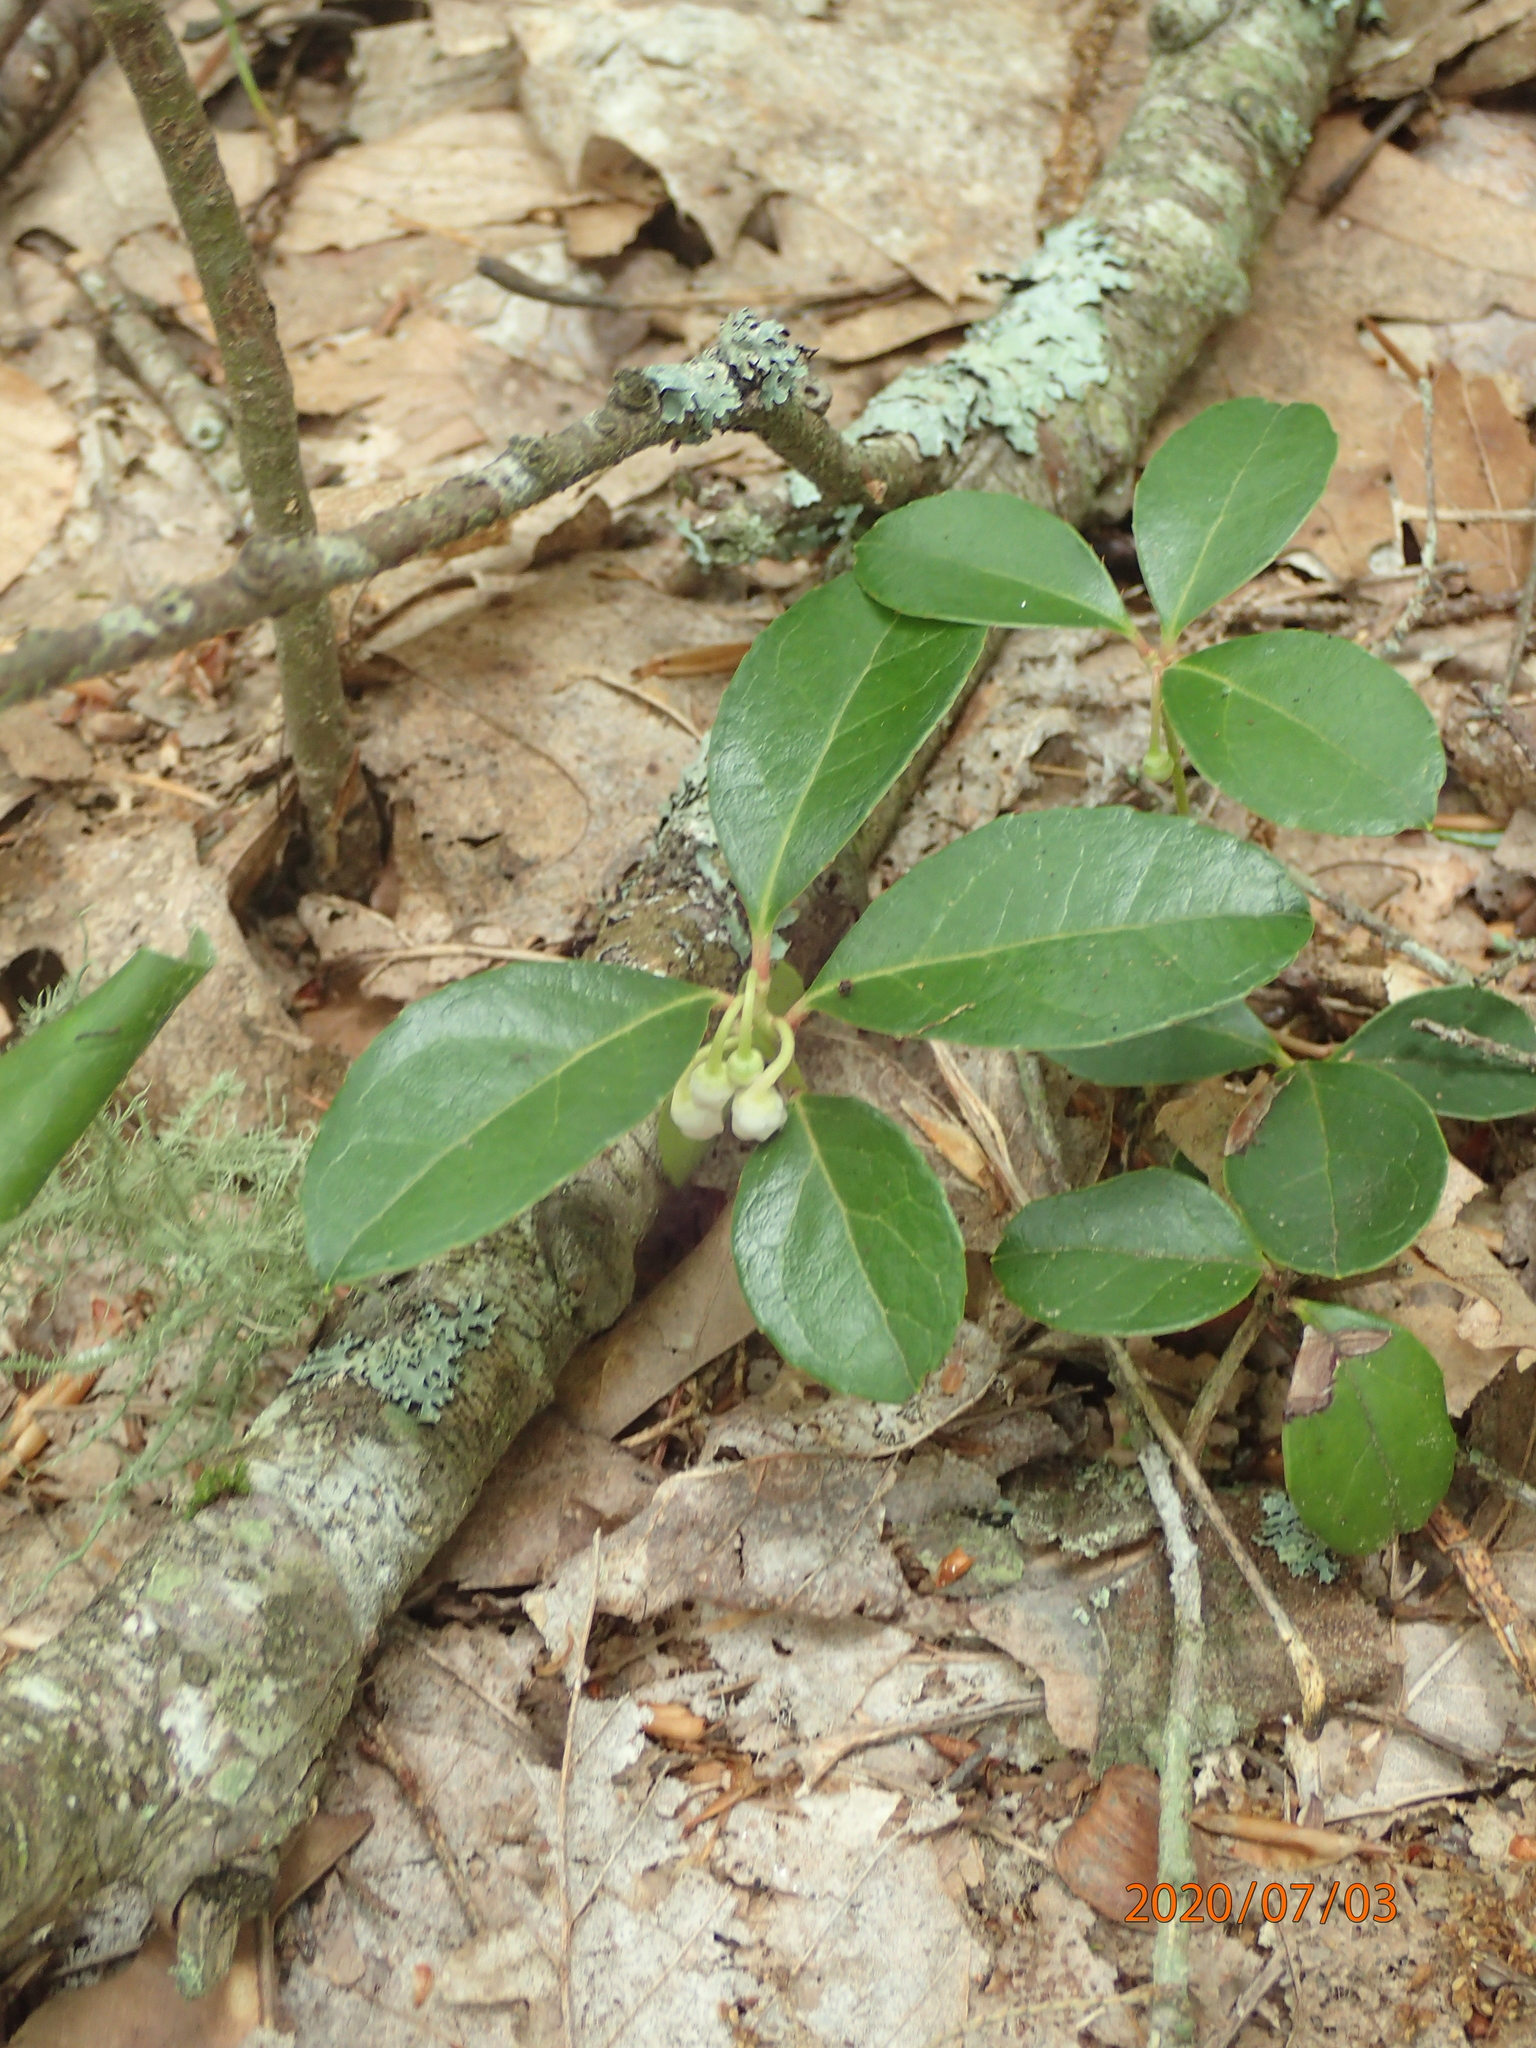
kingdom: Plantae
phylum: Tracheophyta
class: Magnoliopsida
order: Ericales
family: Ericaceae
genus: Gaultheria
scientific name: Gaultheria procumbens
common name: Checkerberry
